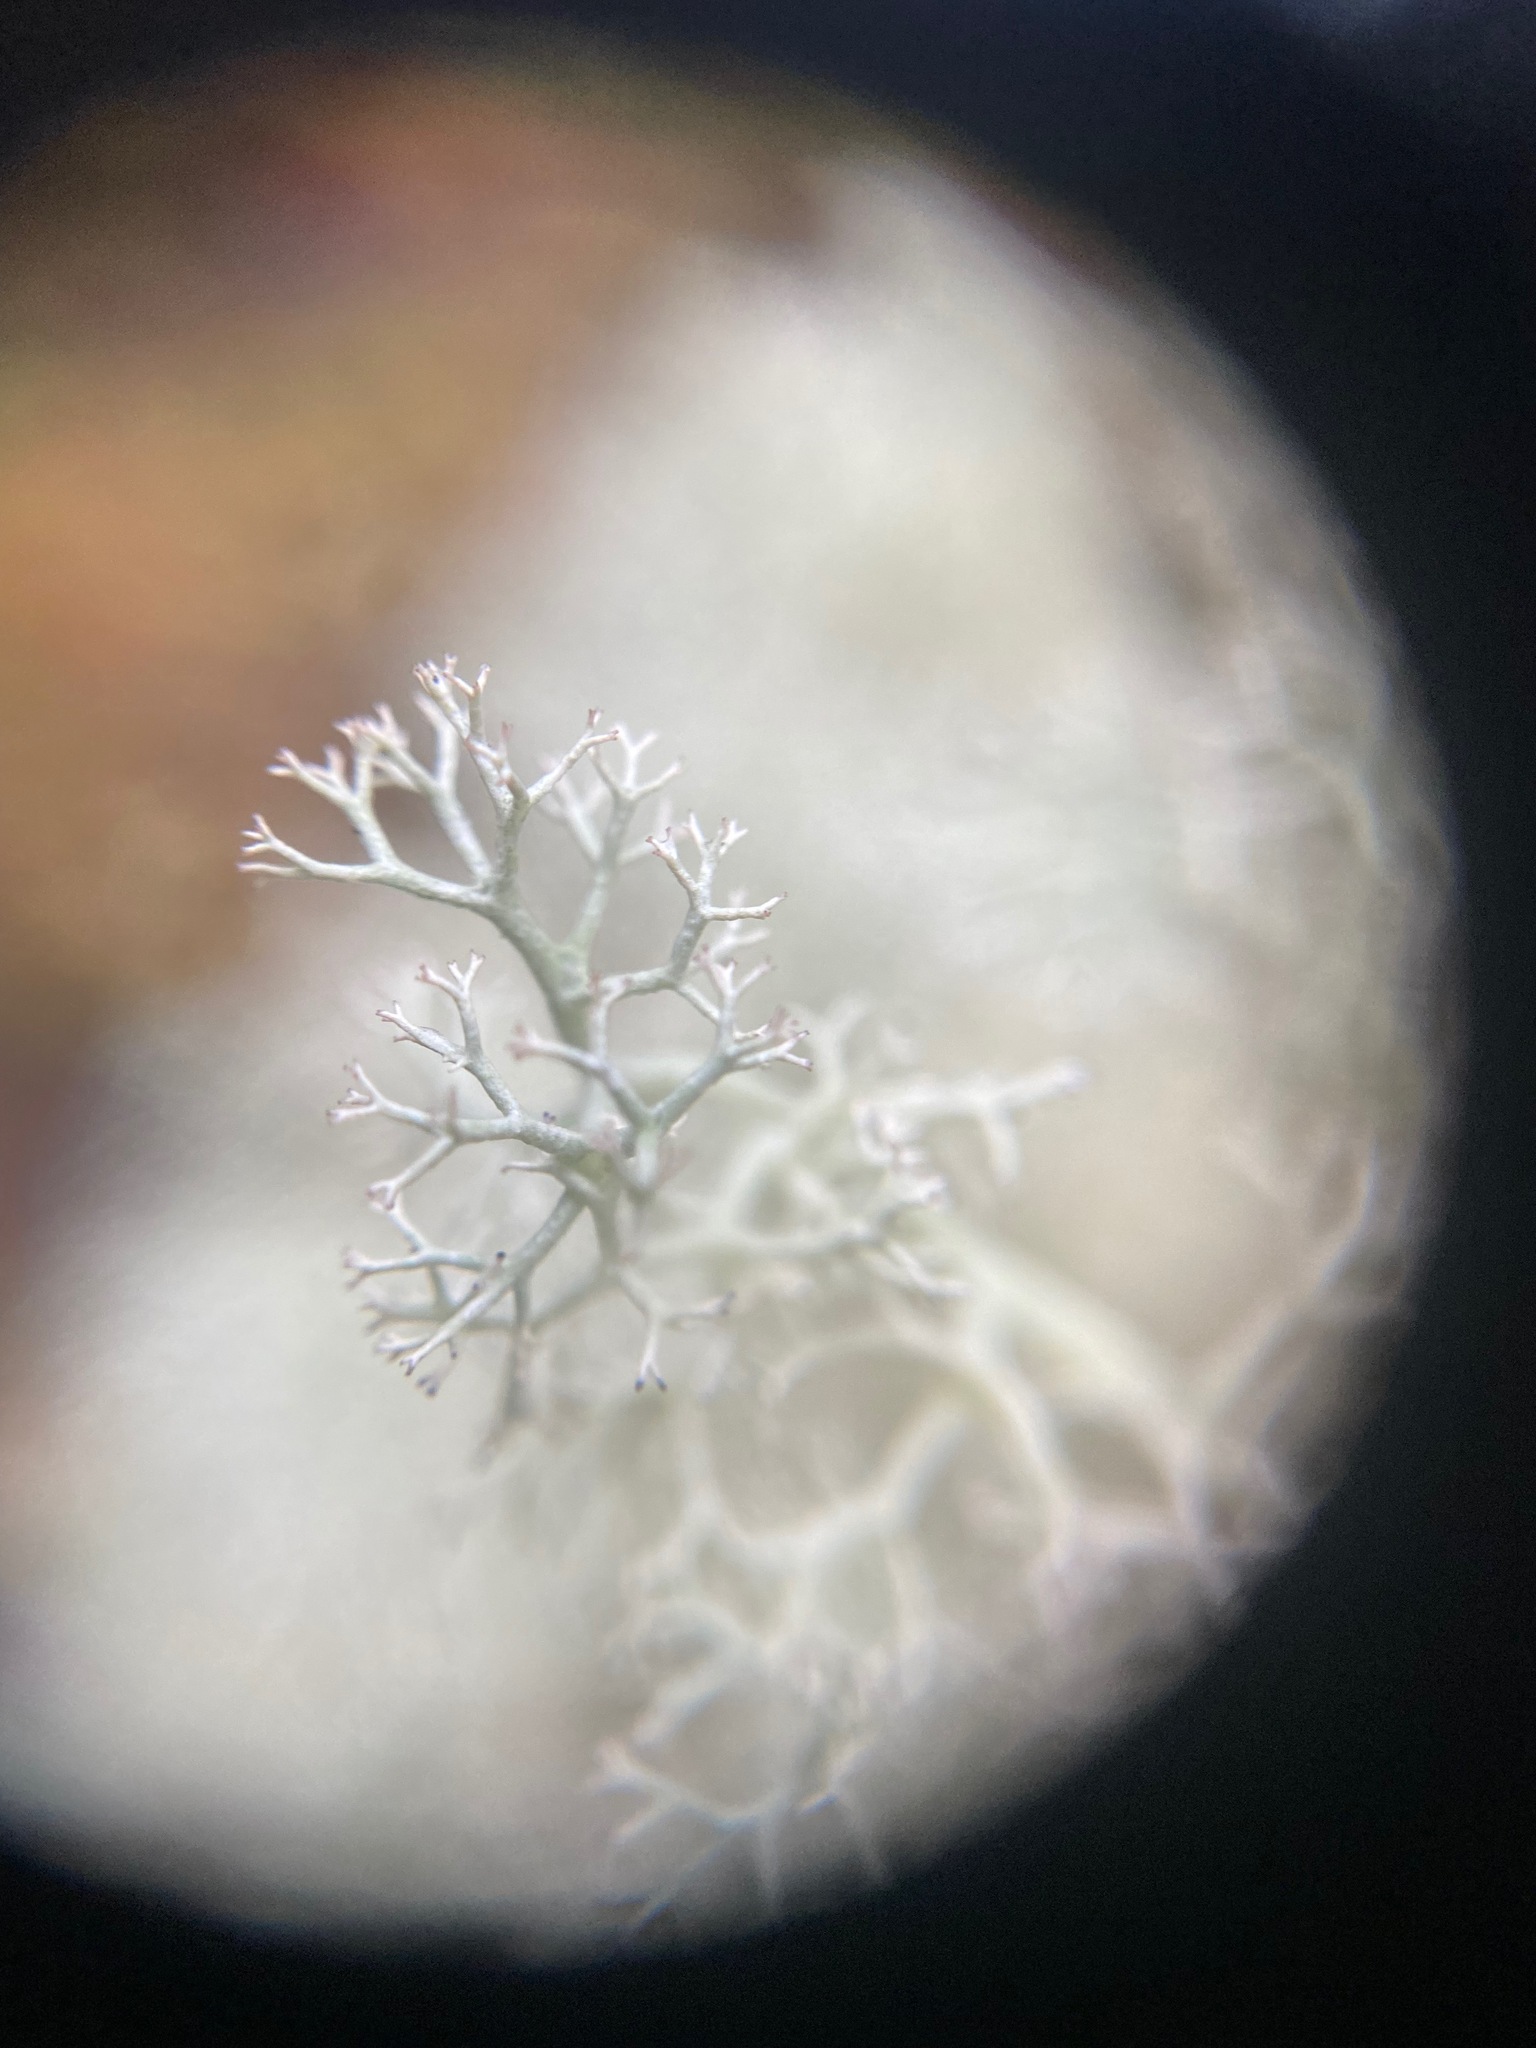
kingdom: Fungi
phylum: Ascomycota
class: Lecanoromycetes
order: Lecanorales
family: Cladoniaceae
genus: Cladonia
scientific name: Cladonia portentosa
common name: Reindeer lichen
